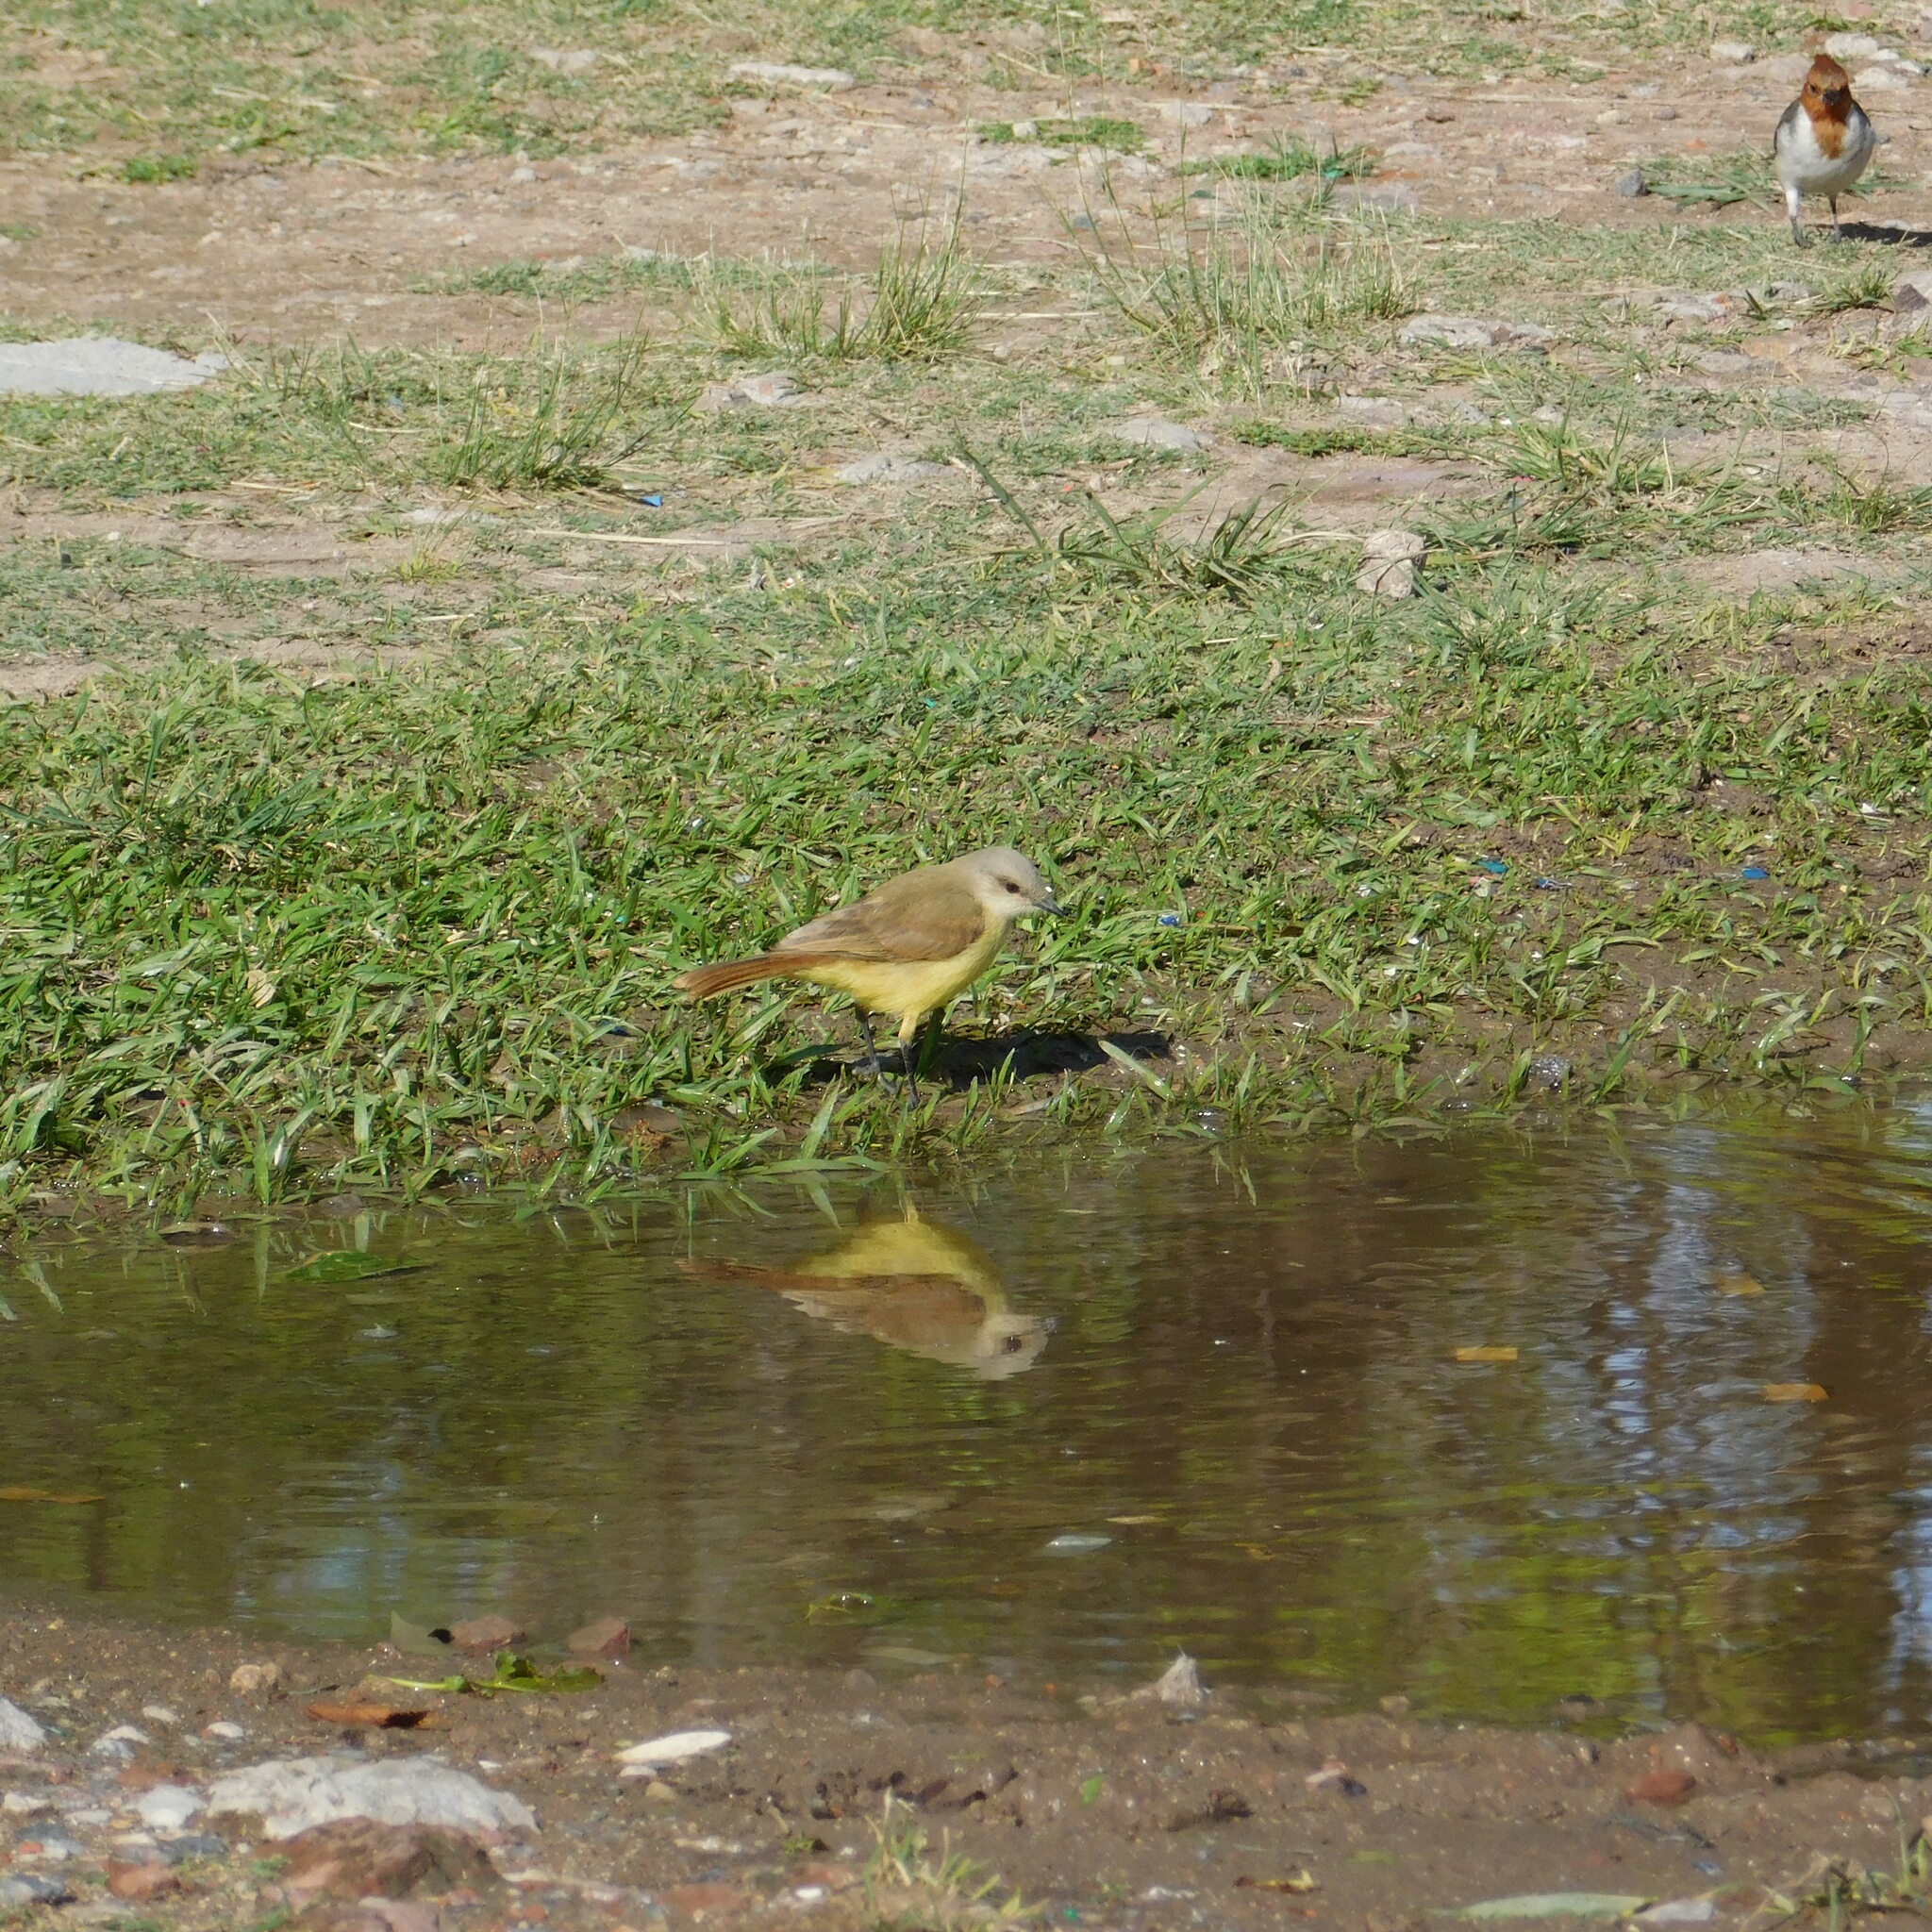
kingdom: Animalia
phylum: Chordata
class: Aves
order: Passeriformes
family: Tyrannidae
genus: Machetornis
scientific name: Machetornis rixosa
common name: Cattle tyrant
